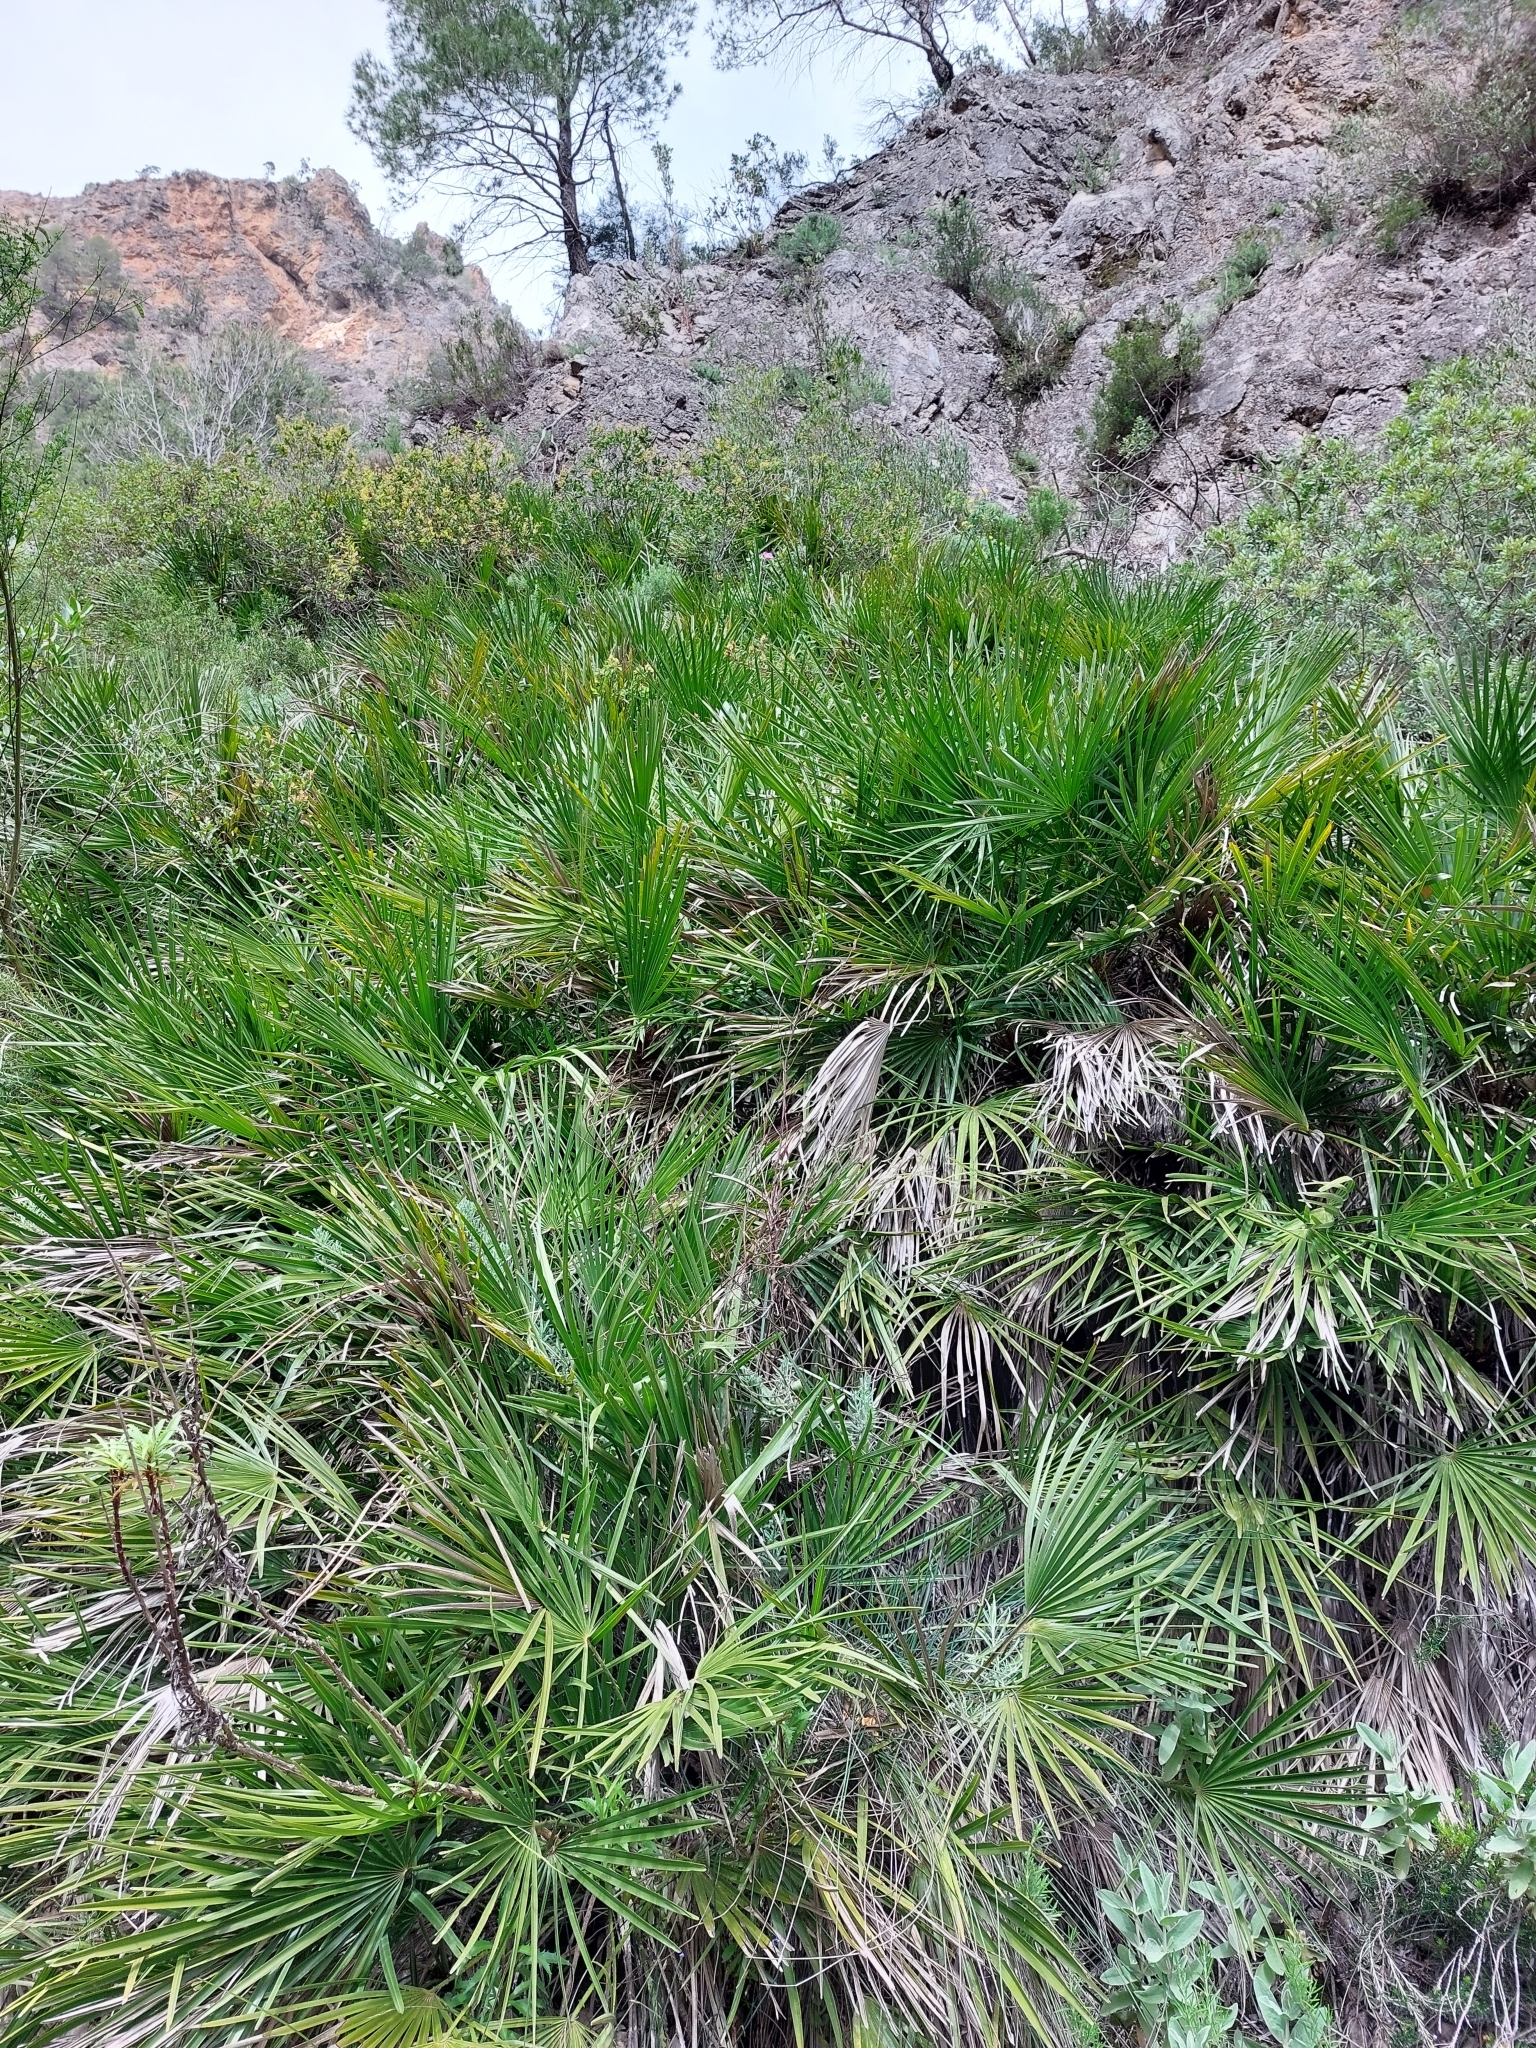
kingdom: Plantae
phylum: Tracheophyta
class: Liliopsida
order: Arecales
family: Arecaceae
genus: Chamaerops
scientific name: Chamaerops humilis
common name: Dwarf fan palm
